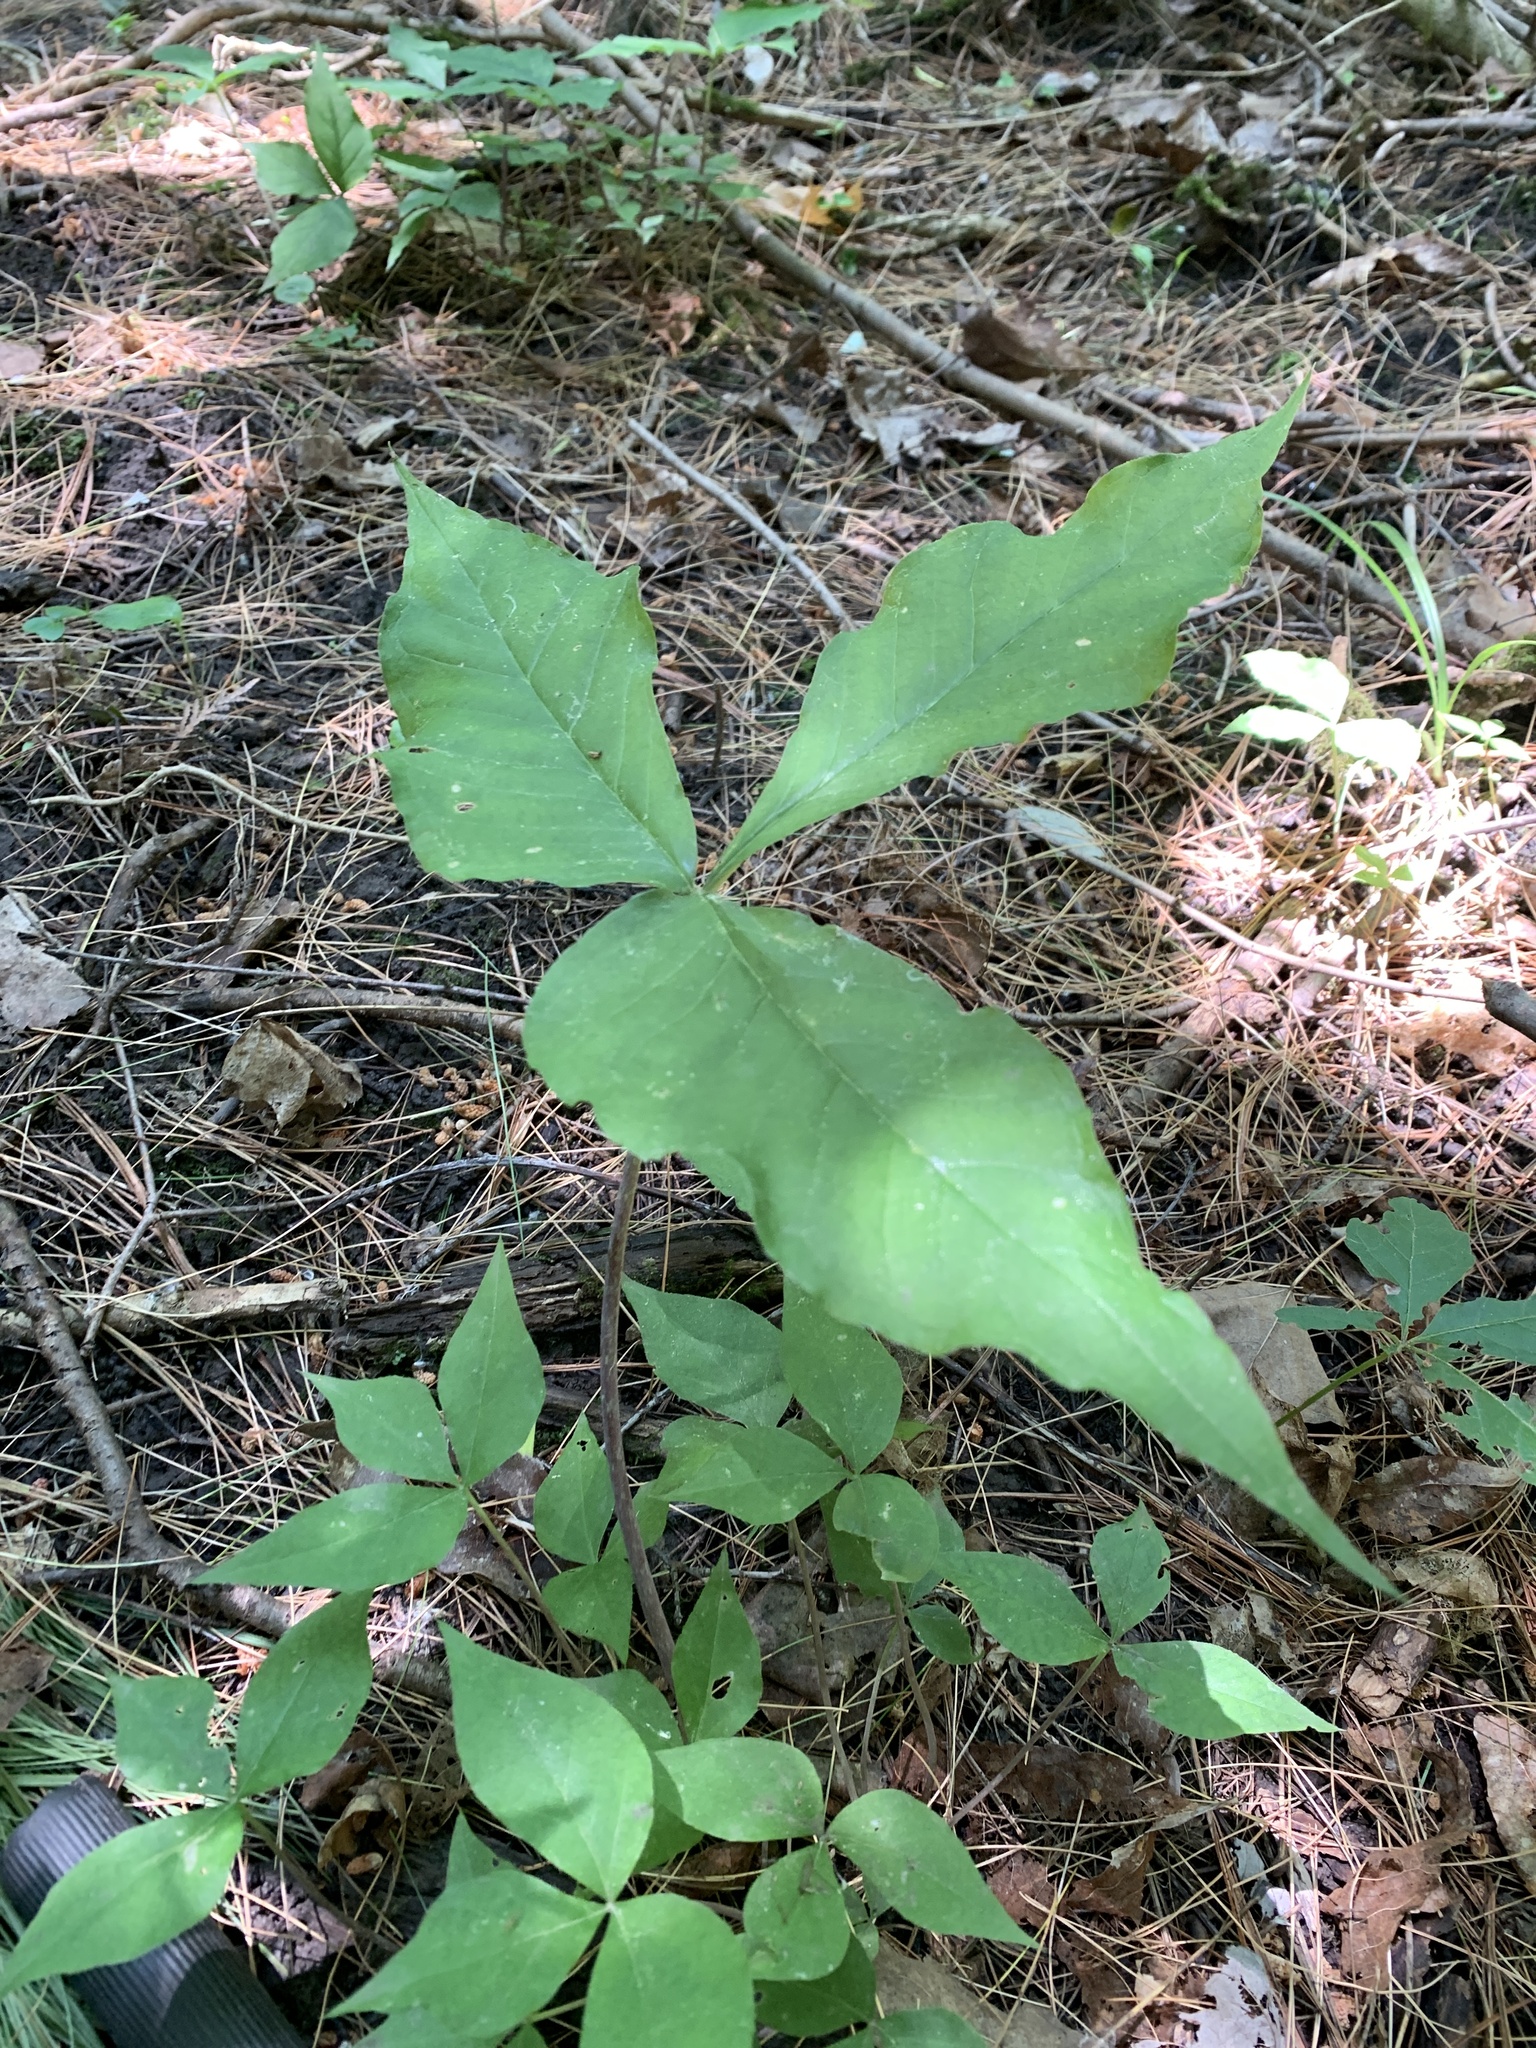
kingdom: Plantae
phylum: Tracheophyta
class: Liliopsida
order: Alismatales
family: Araceae
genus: Arisaema
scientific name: Arisaema triphyllum
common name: Jack-in-the-pulpit
